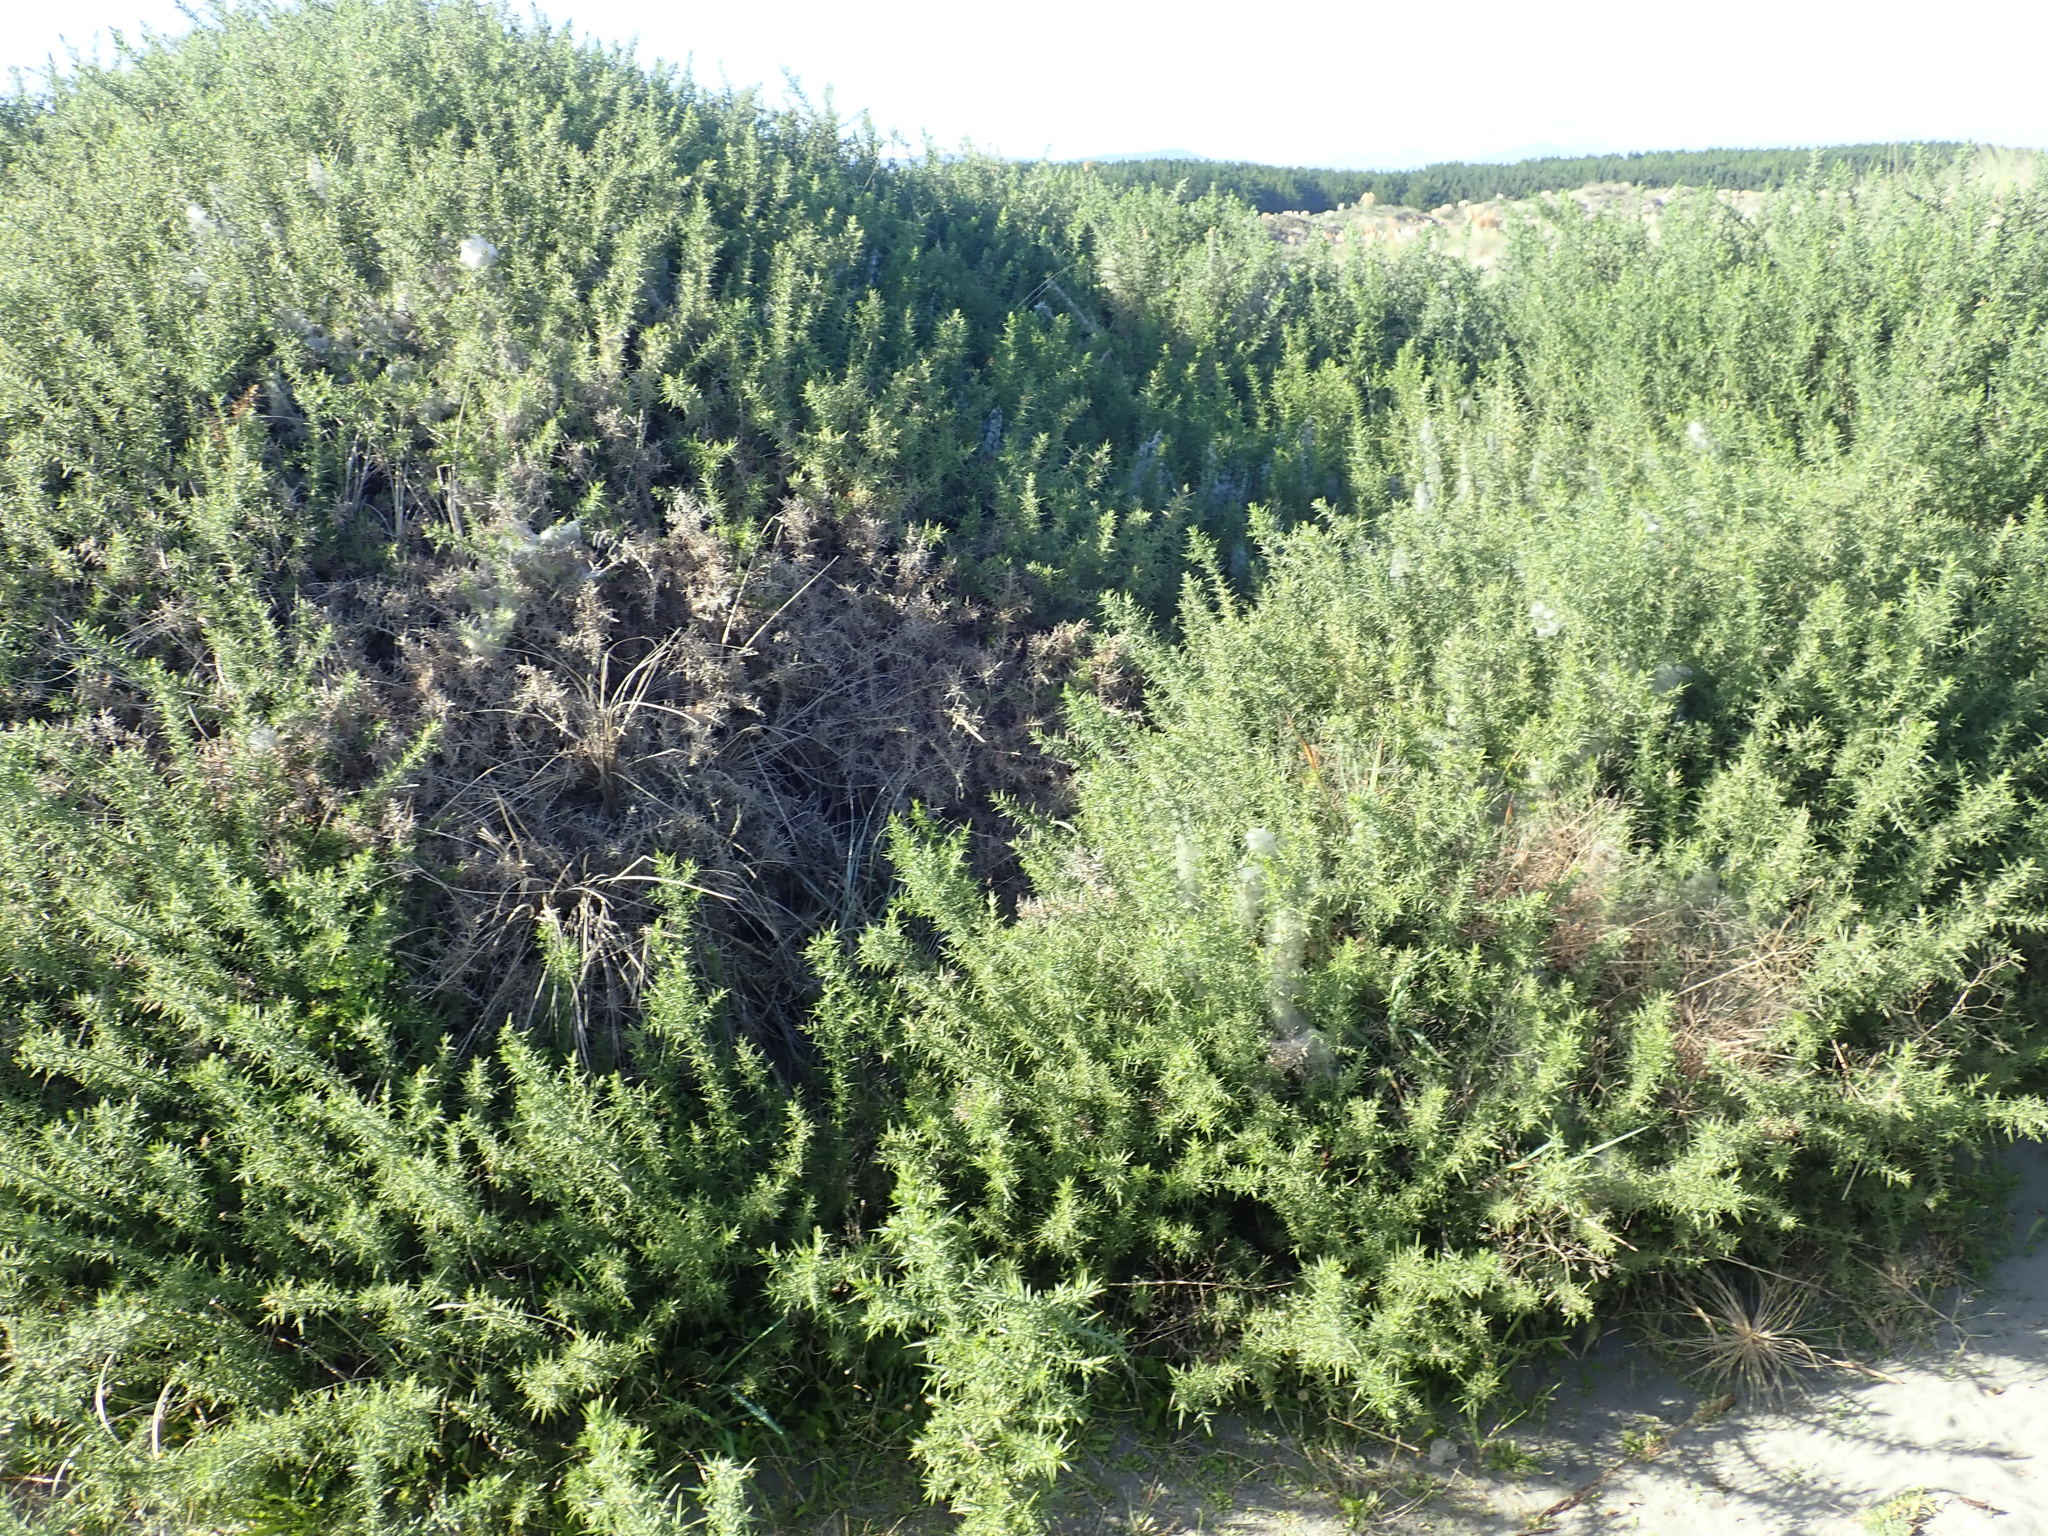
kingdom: Plantae
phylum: Tracheophyta
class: Magnoliopsida
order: Fabales
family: Fabaceae
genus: Ulex
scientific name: Ulex europaeus
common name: Common gorse
